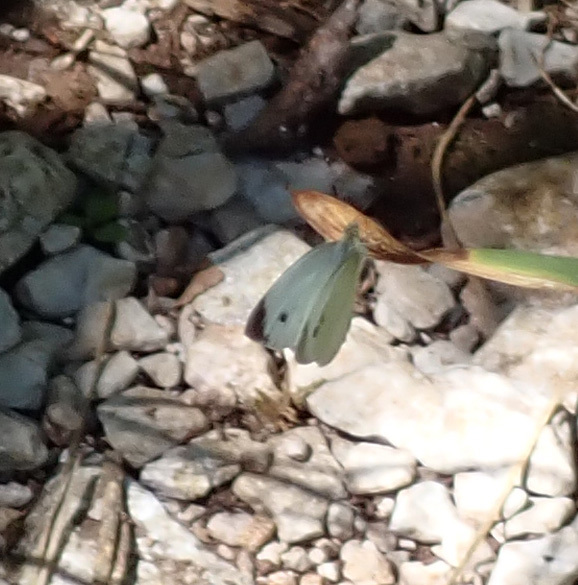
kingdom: Animalia
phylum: Arthropoda
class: Insecta
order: Lepidoptera
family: Pieridae
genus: Pieris
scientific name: Pieris mannii
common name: Southern small white
